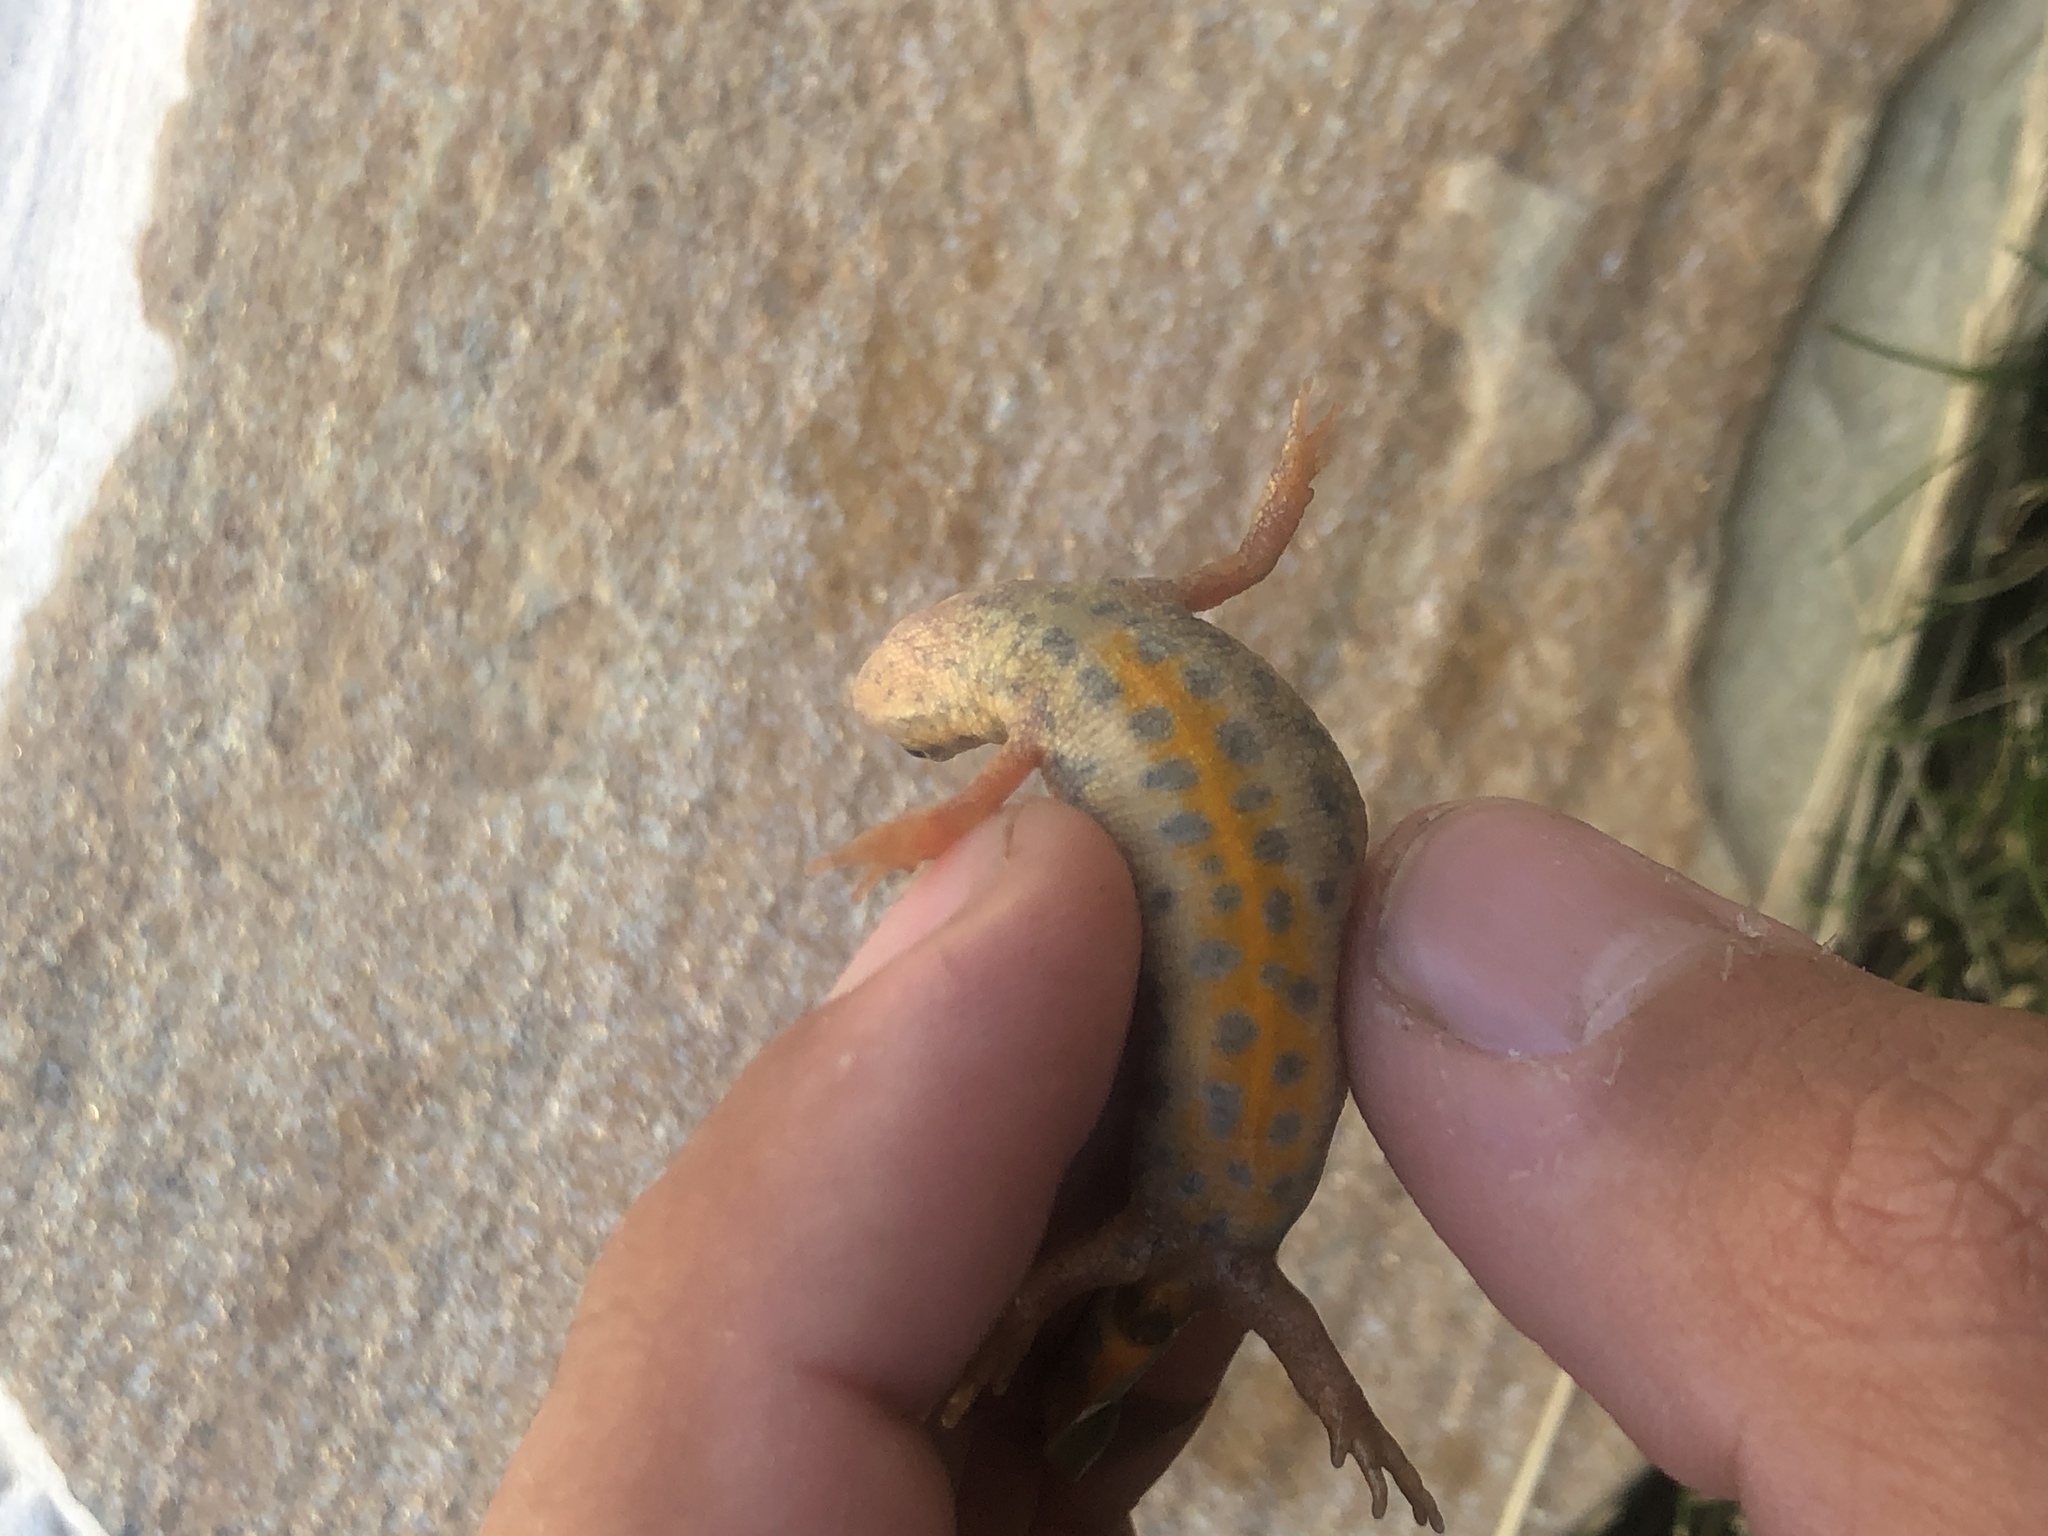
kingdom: Animalia
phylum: Chordata
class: Amphibia
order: Caudata
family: Salamandridae
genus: Lissotriton
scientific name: Lissotriton vulgaris
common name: Smooth newt
